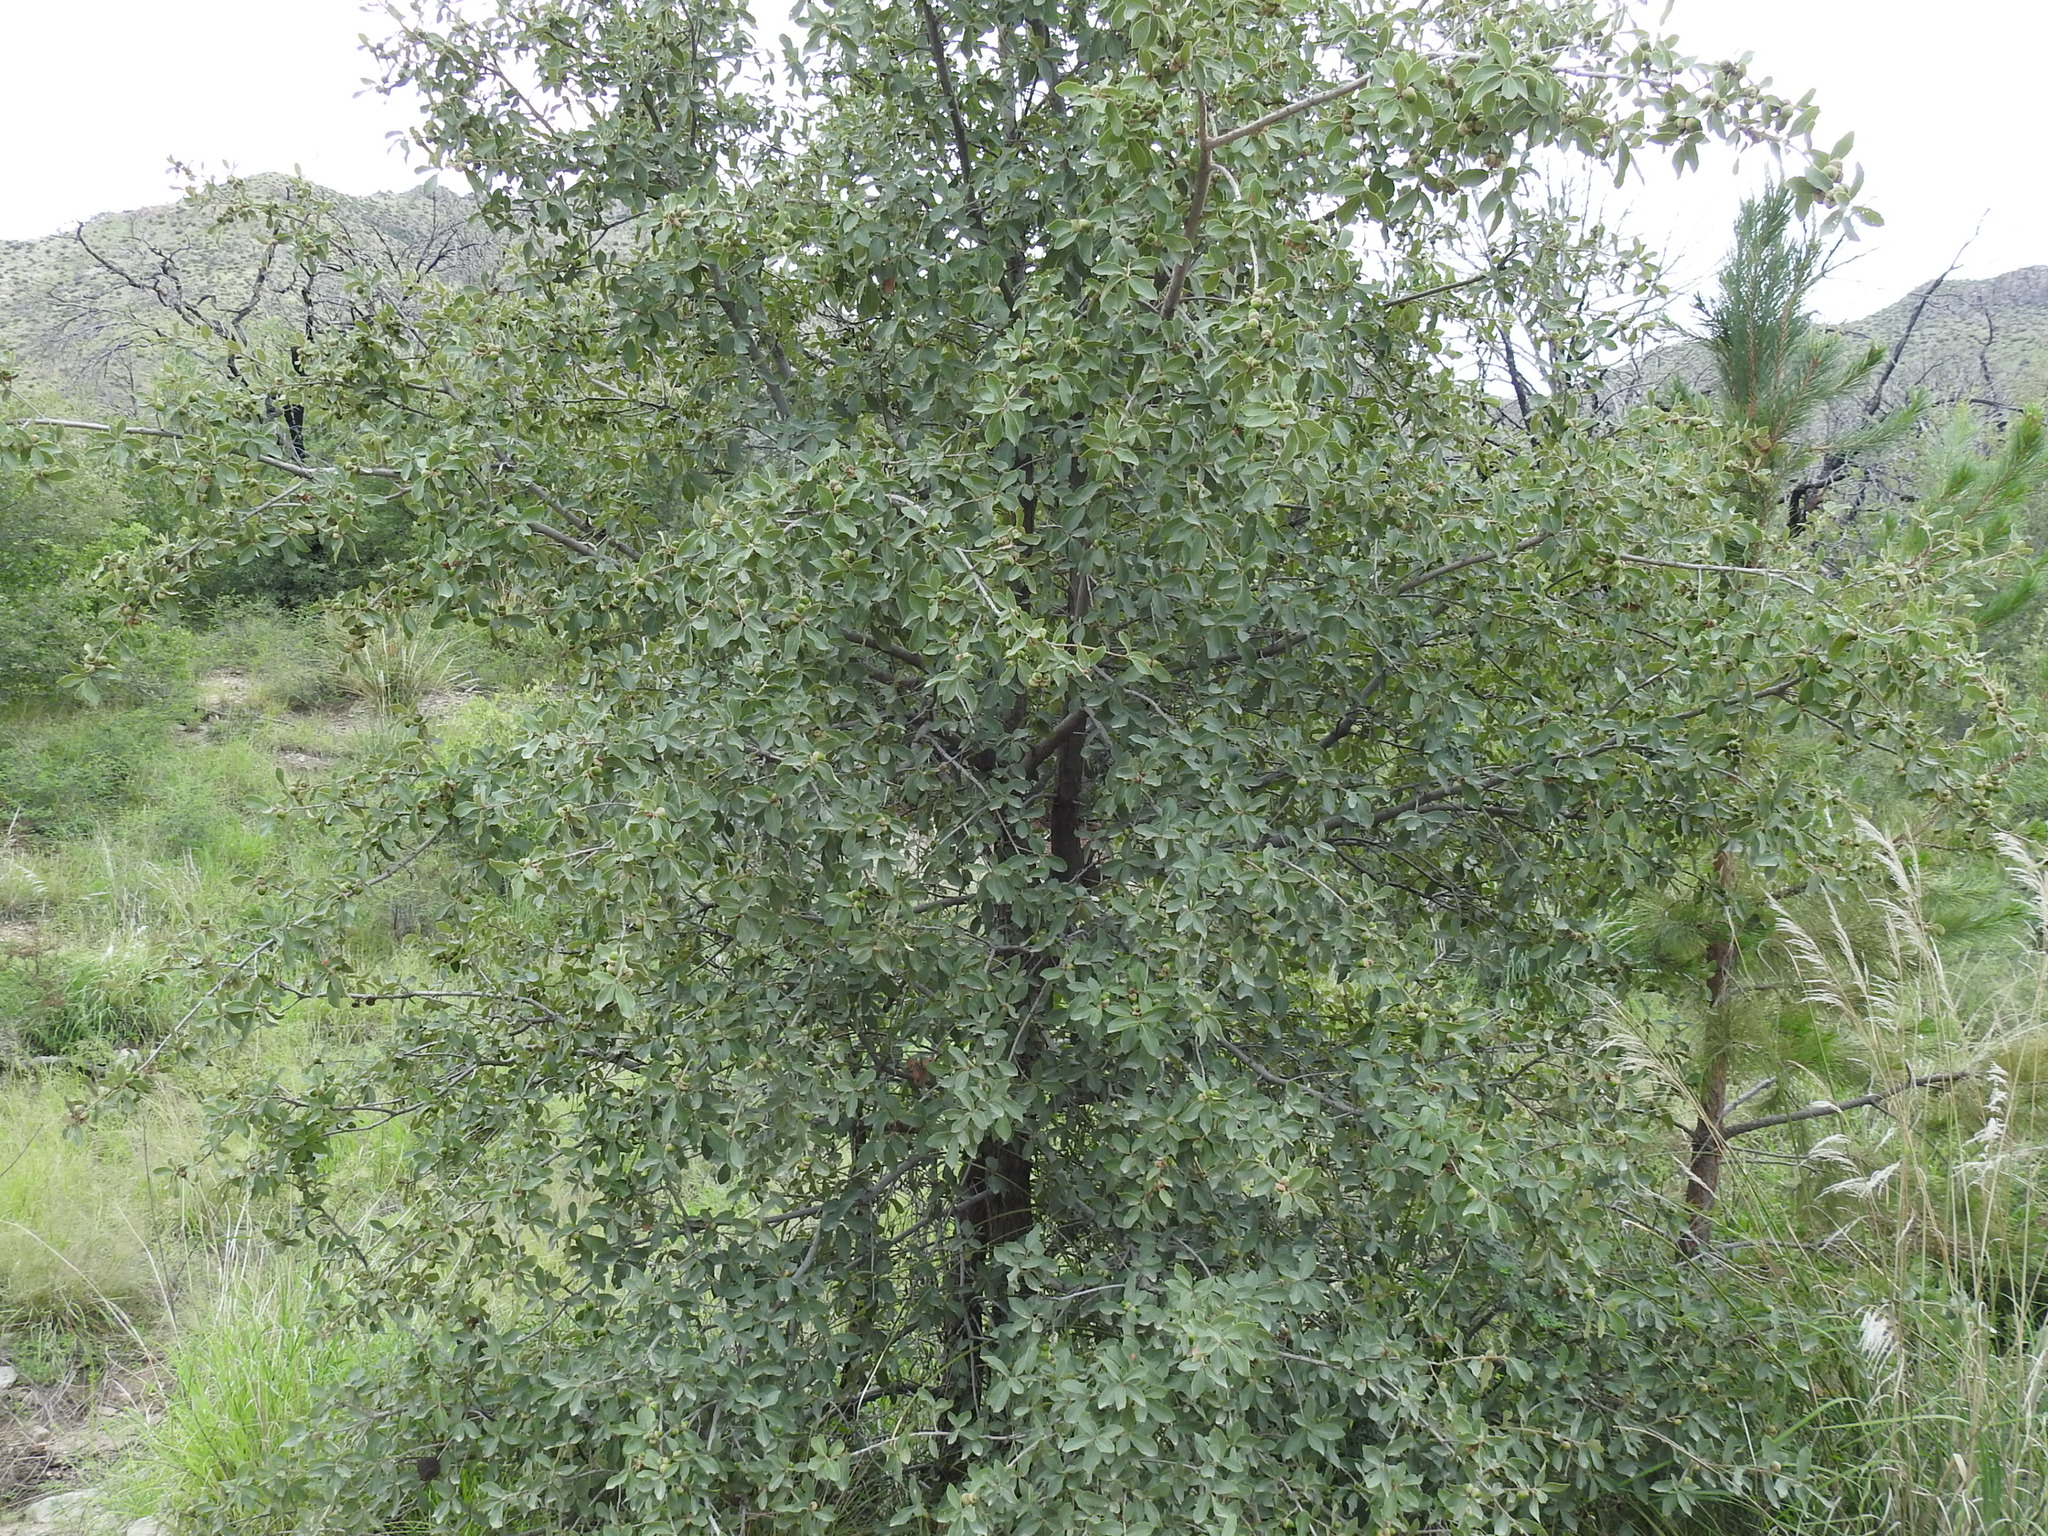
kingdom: Plantae
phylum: Tracheophyta
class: Magnoliopsida
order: Fagales
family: Fagaceae
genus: Quercus
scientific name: Quercus arizonica
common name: Arizona white oak
